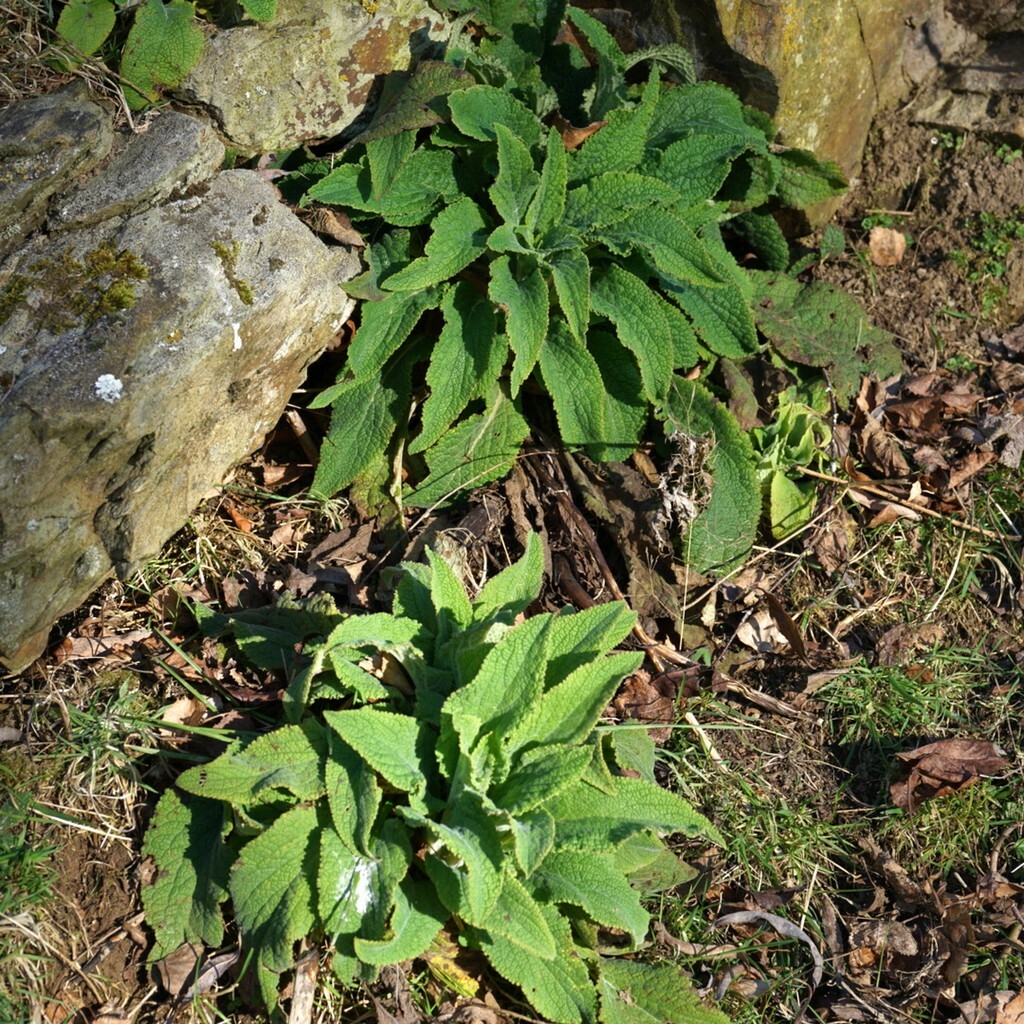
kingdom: Plantae
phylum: Tracheophyta
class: Magnoliopsida
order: Lamiales
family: Plantaginaceae
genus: Digitalis
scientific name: Digitalis purpurea
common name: Foxglove
